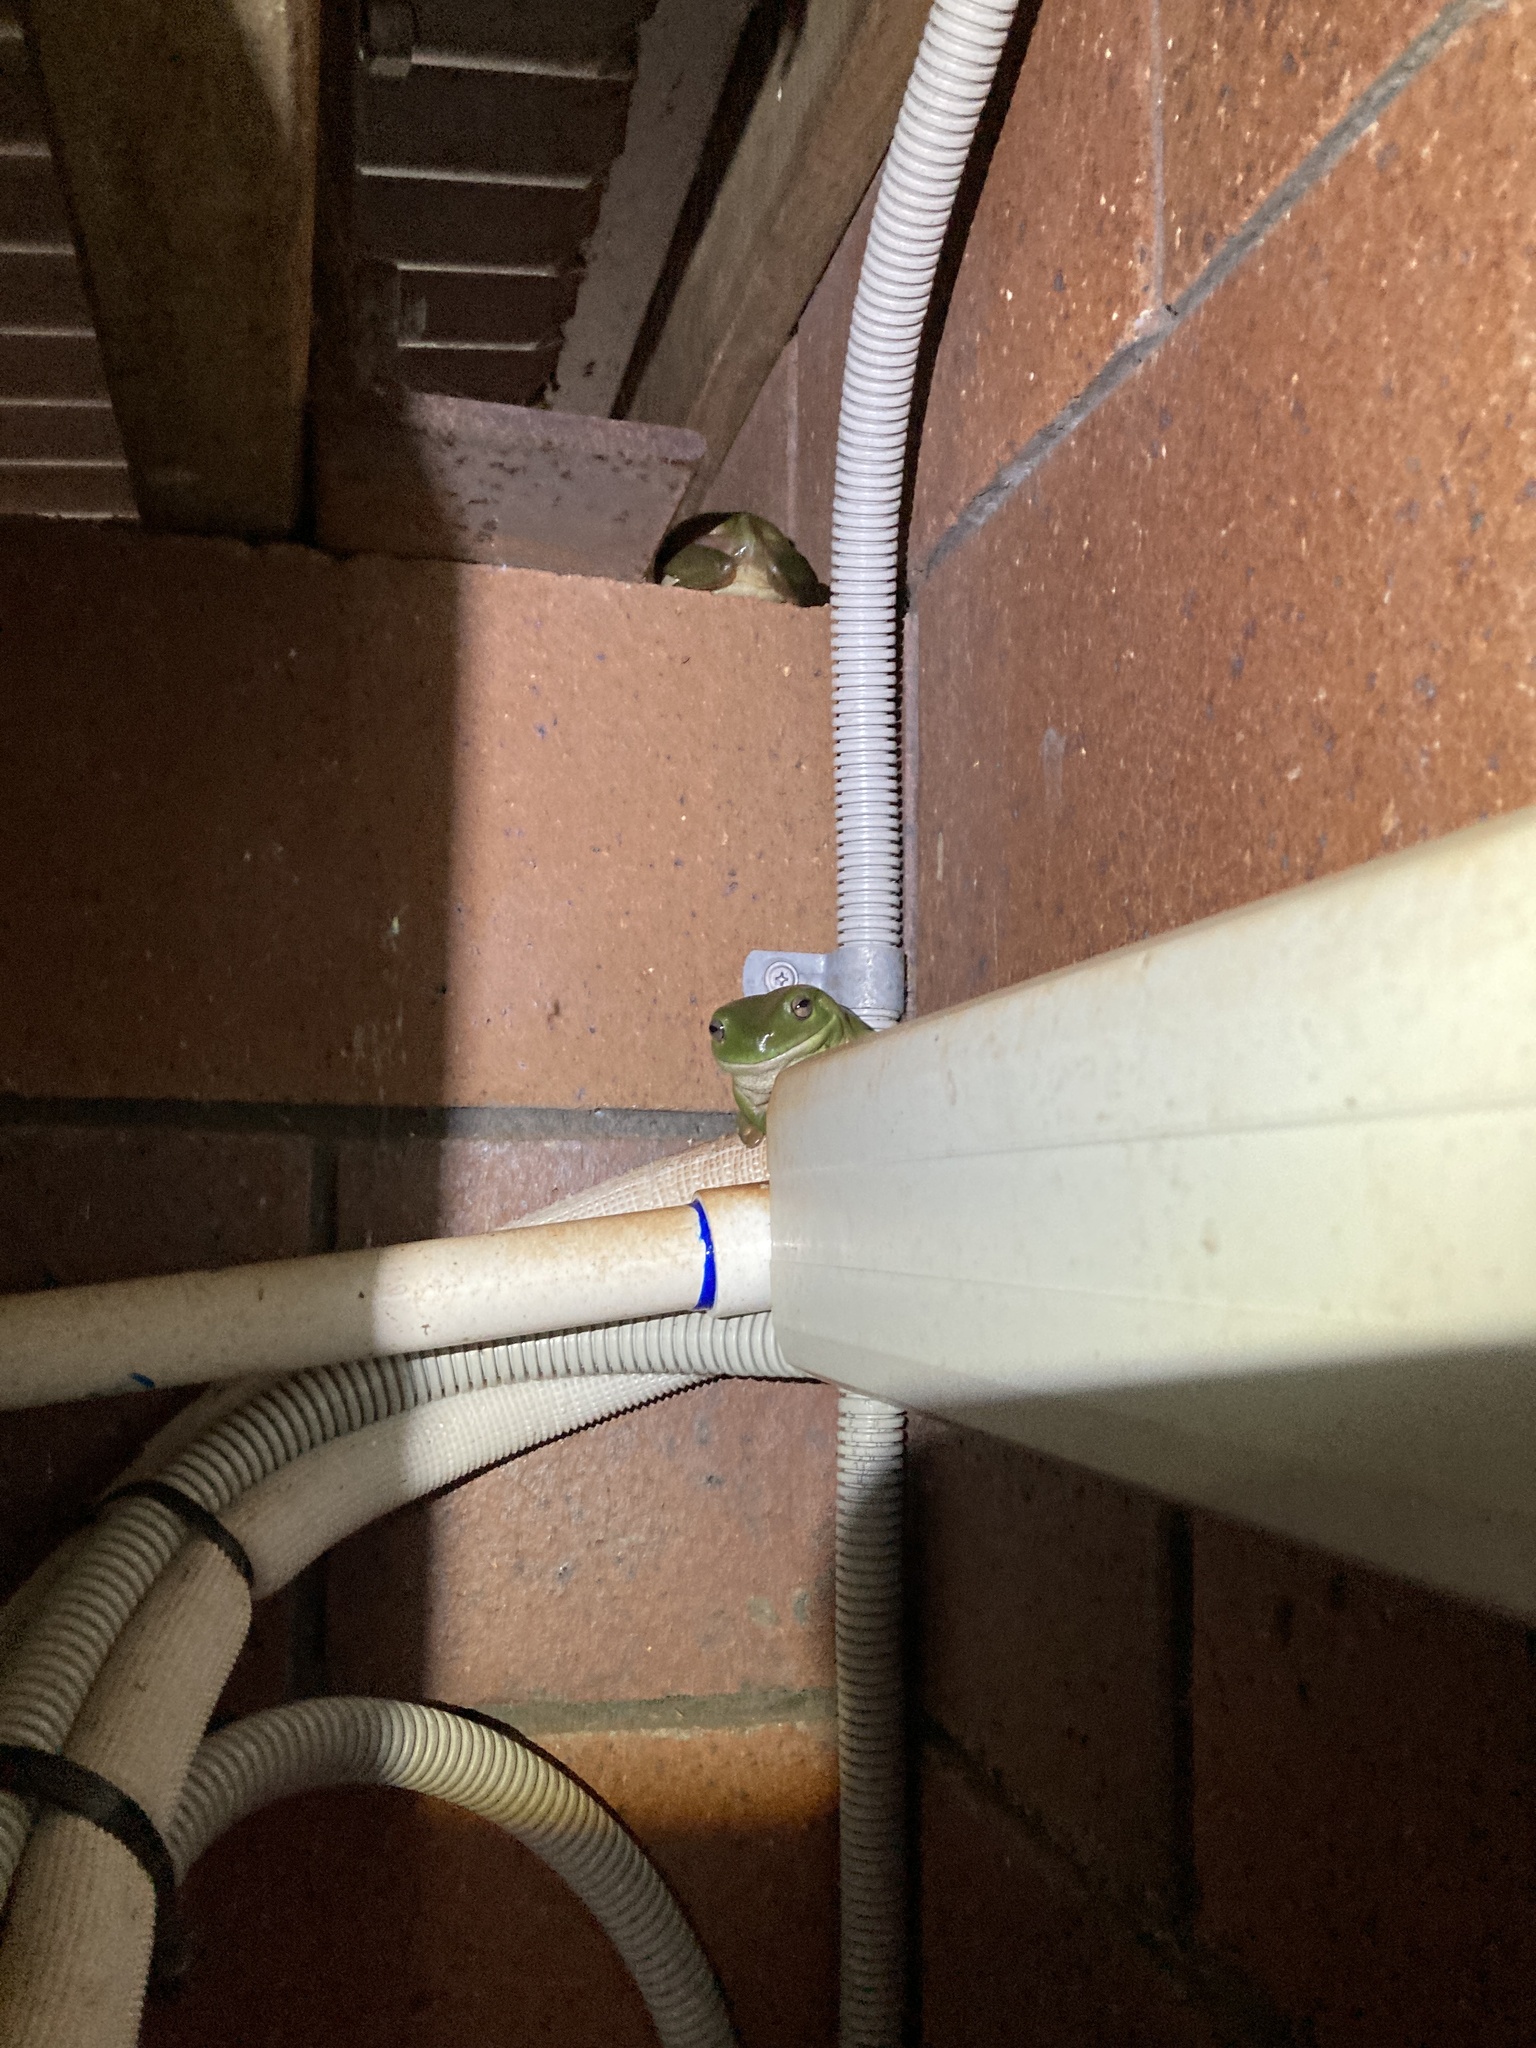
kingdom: Animalia
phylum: Chordata
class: Amphibia
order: Anura
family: Pelodryadidae
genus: Ranoidea
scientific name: Ranoidea caerulea
